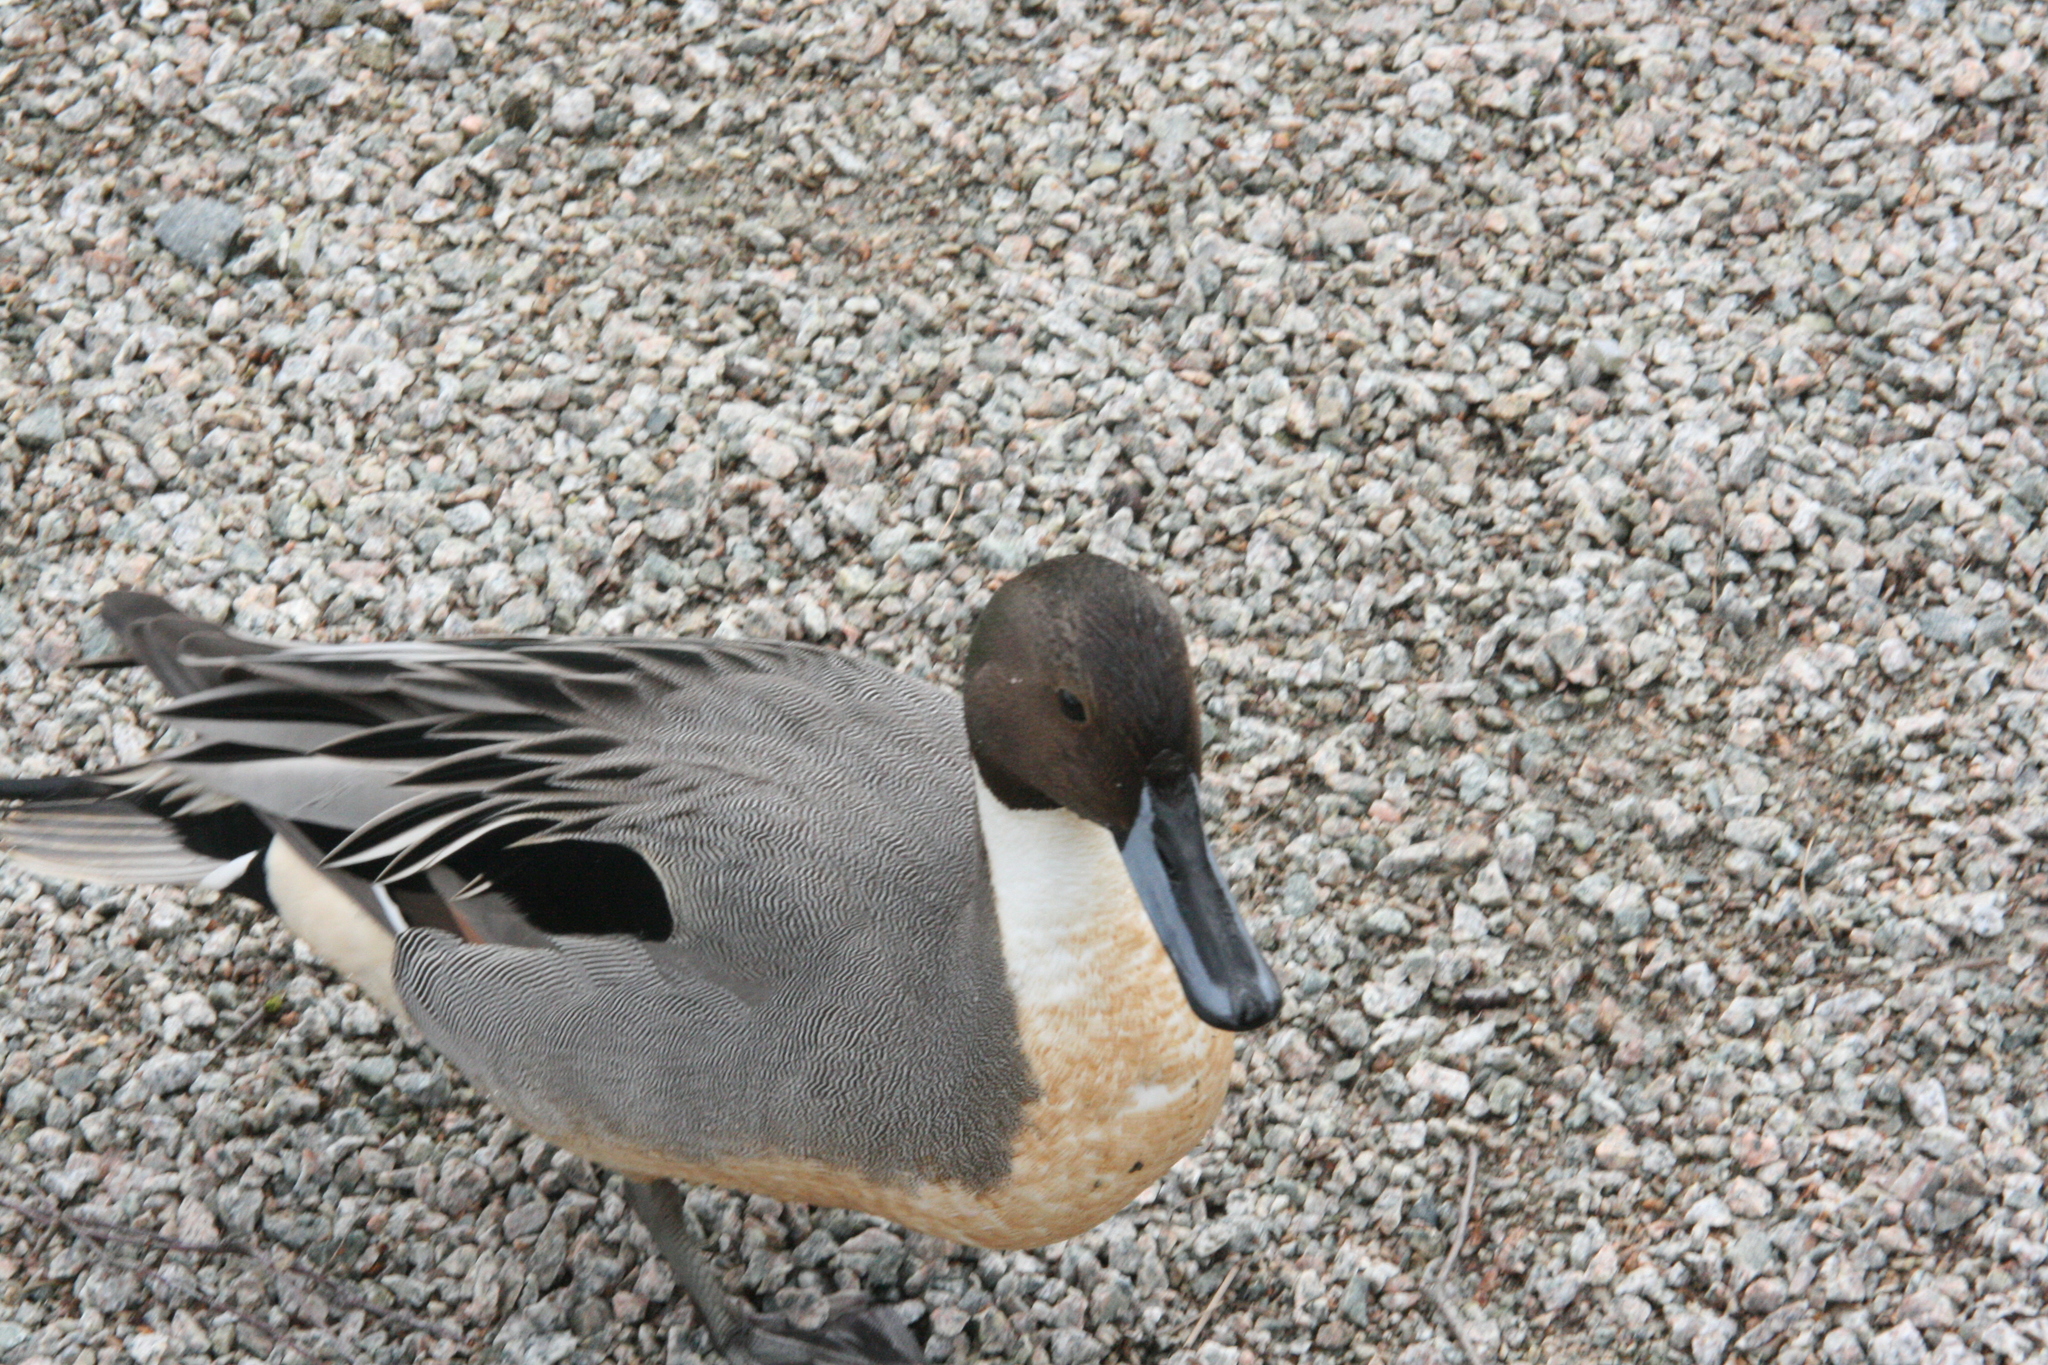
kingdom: Animalia
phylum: Chordata
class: Aves
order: Anseriformes
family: Anatidae
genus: Anas
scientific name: Anas acuta
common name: Northern pintail
